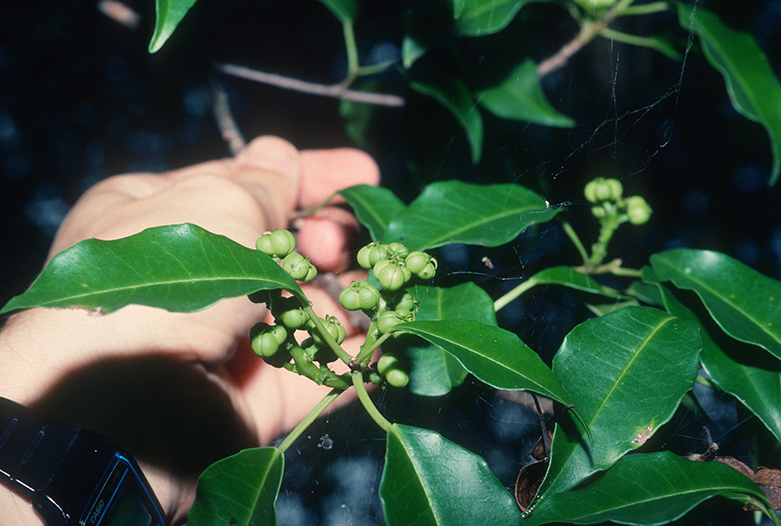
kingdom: Plantae
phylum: Tracheophyta
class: Magnoliopsida
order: Malpighiales
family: Euphorbiaceae
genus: Excoecaria
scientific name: Excoecaria agallocha
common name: River poisontree
